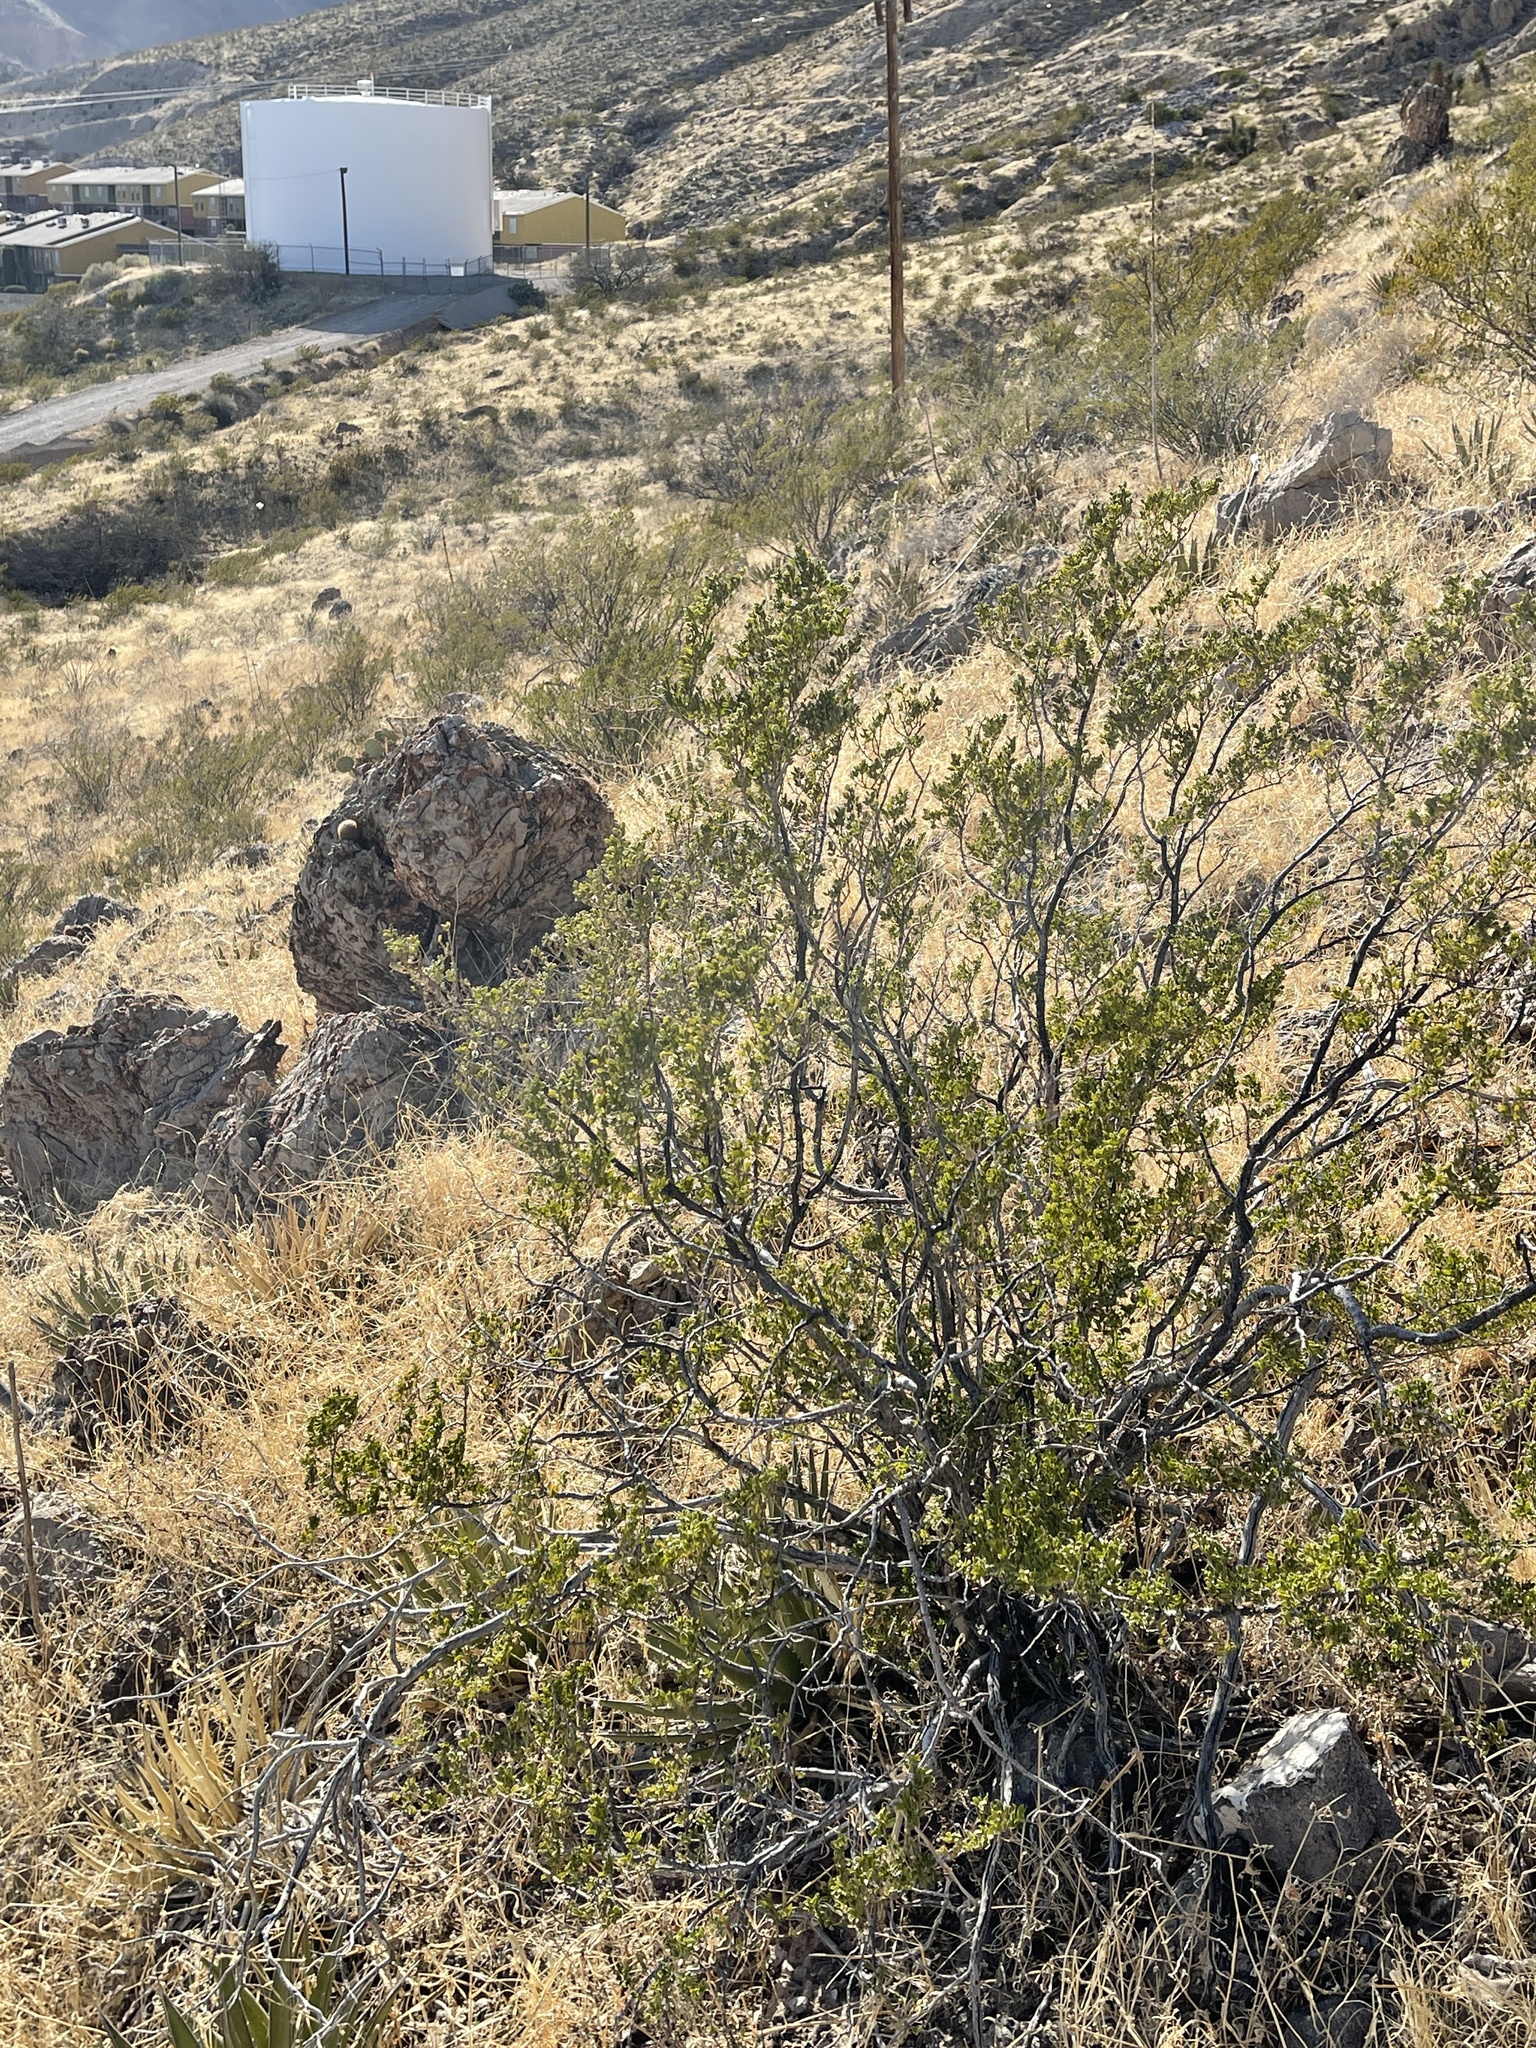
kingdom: Plantae
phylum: Tracheophyta
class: Magnoliopsida
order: Zygophyllales
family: Zygophyllaceae
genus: Larrea
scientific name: Larrea tridentata
